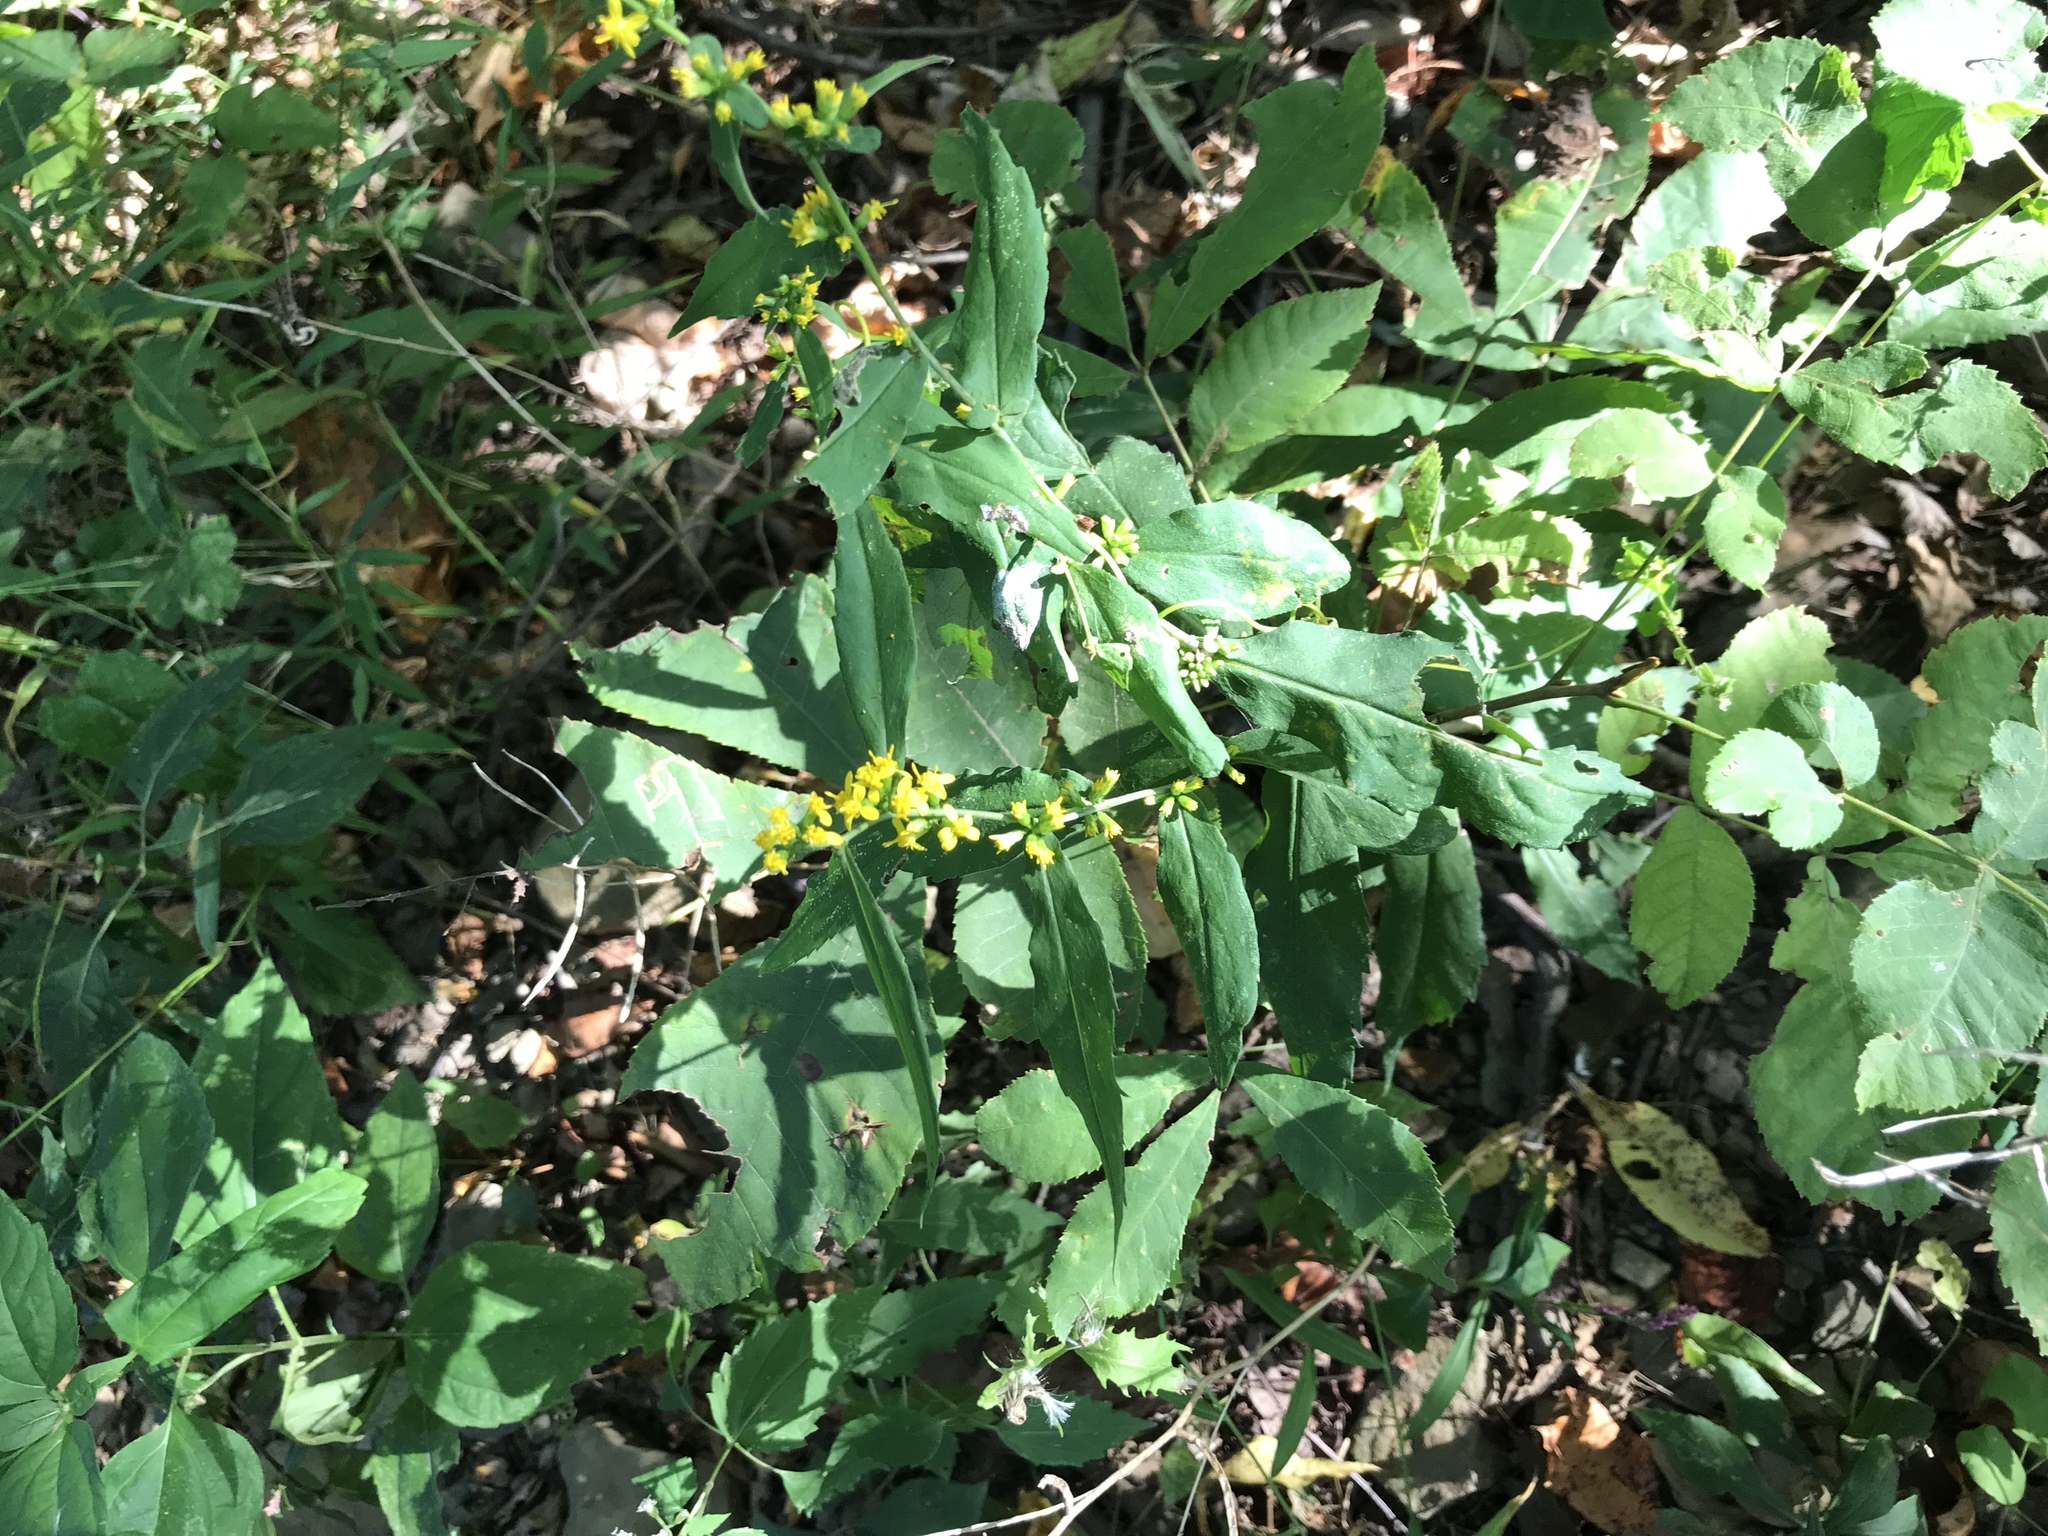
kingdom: Plantae
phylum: Tracheophyta
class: Magnoliopsida
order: Asterales
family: Asteraceae
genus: Solidago
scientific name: Solidago caesia
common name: Woodland goldenrod
